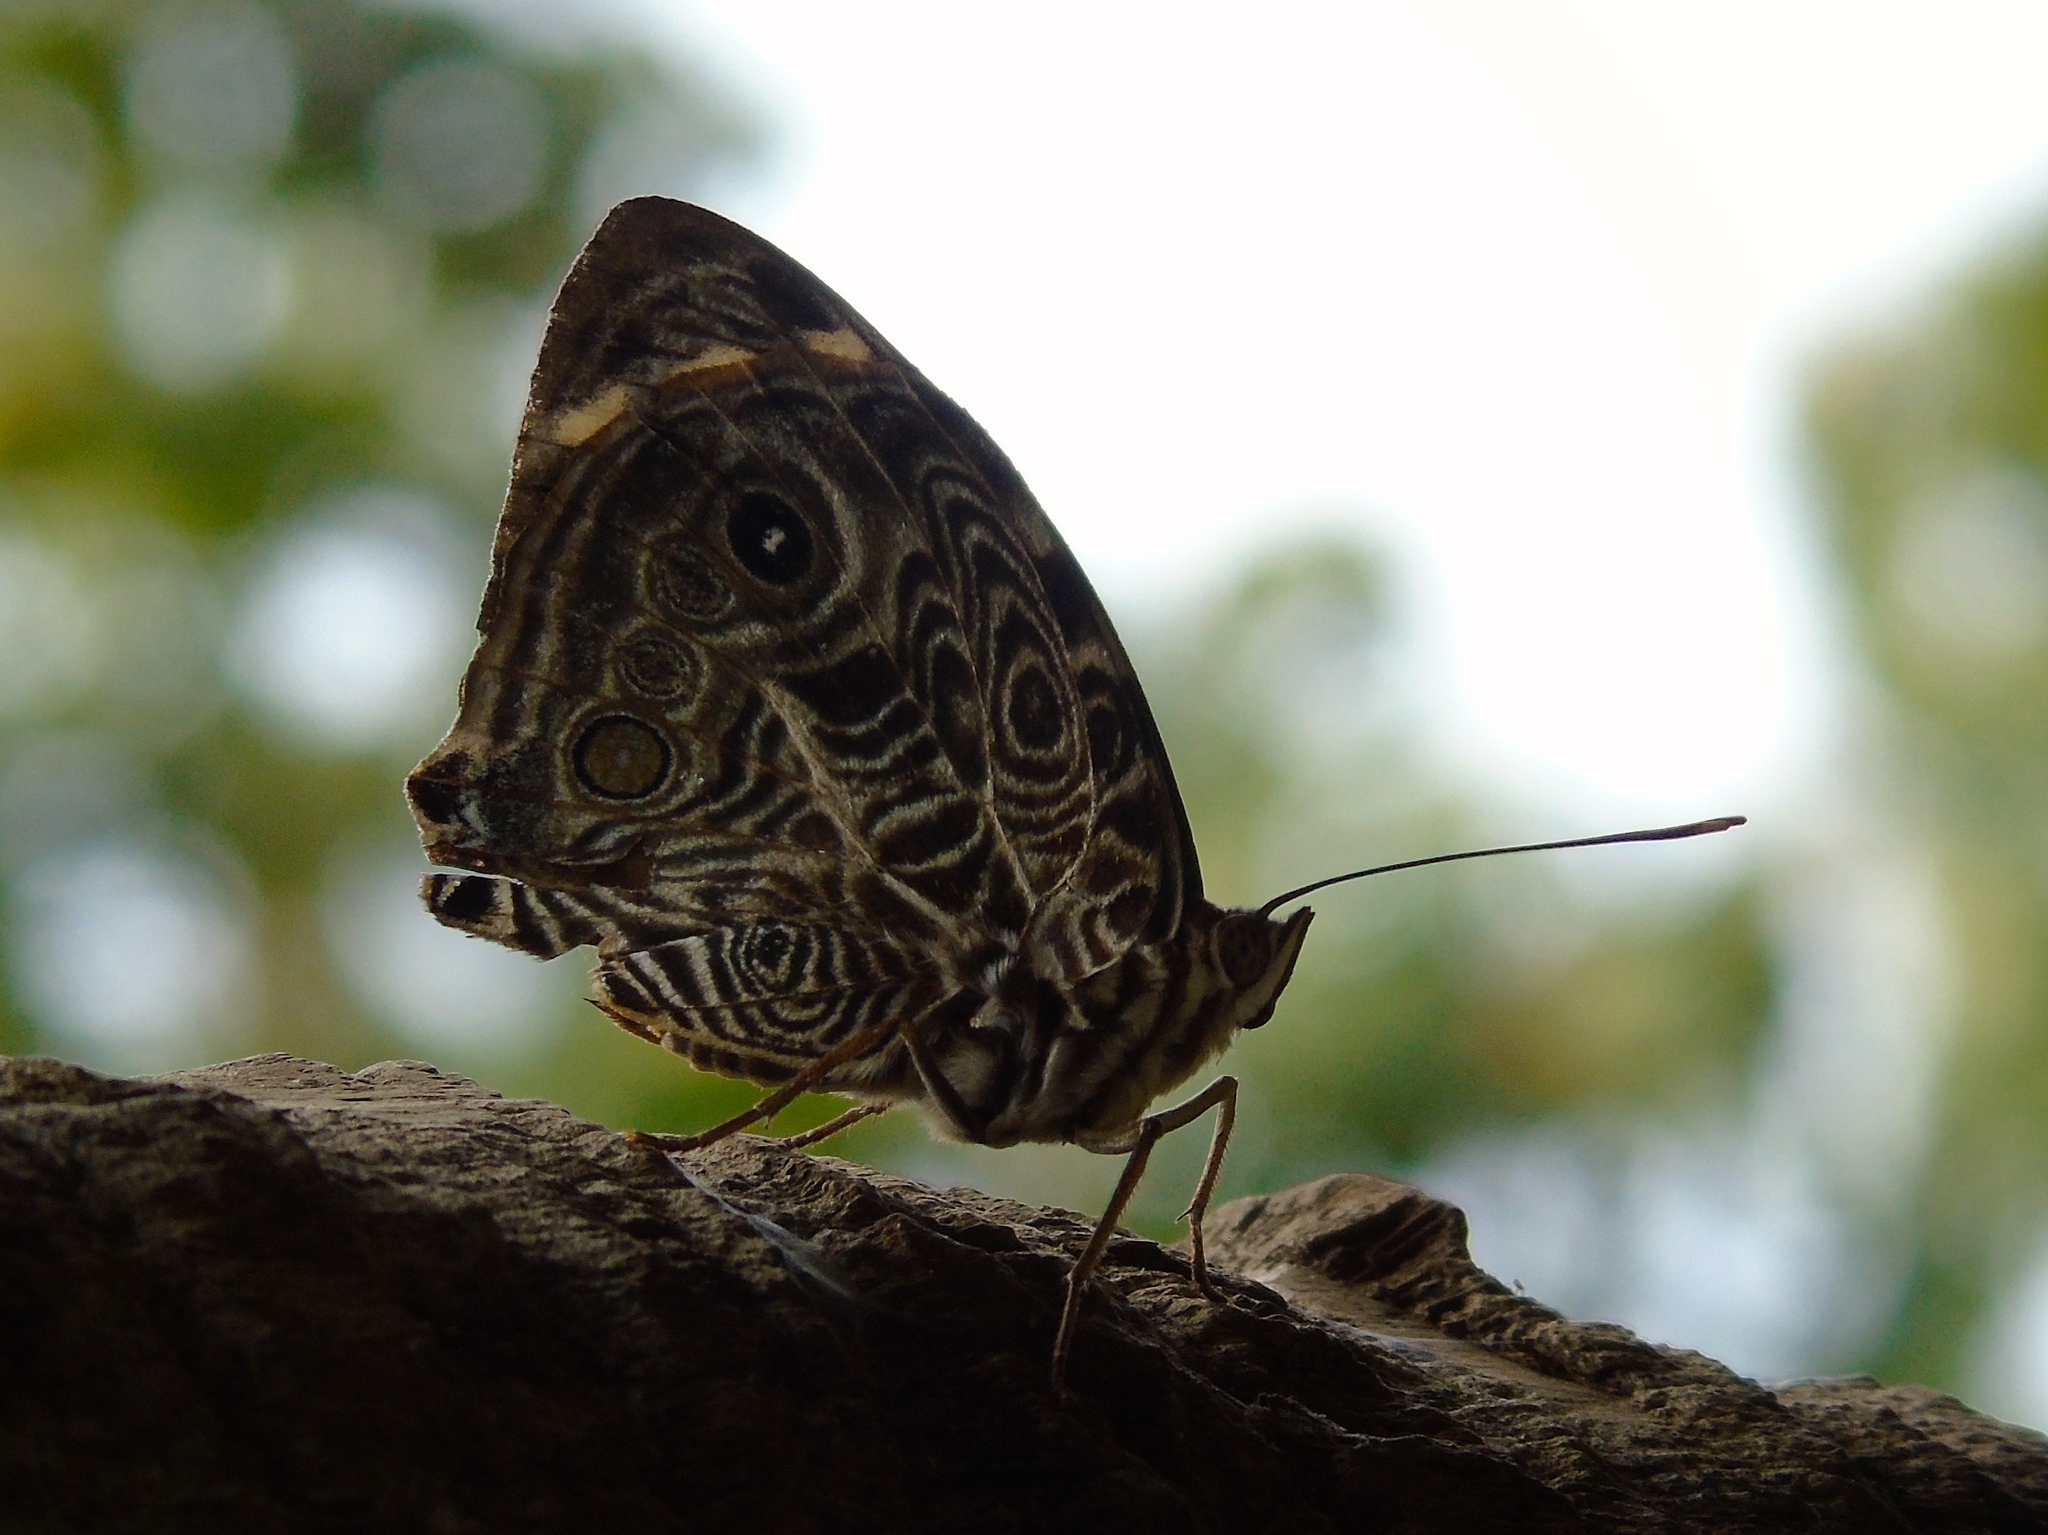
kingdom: Animalia
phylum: Arthropoda
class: Insecta
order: Lepidoptera
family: Nymphalidae
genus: Smyrna
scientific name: Smyrna blomfildia
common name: Blomfild's beauty
